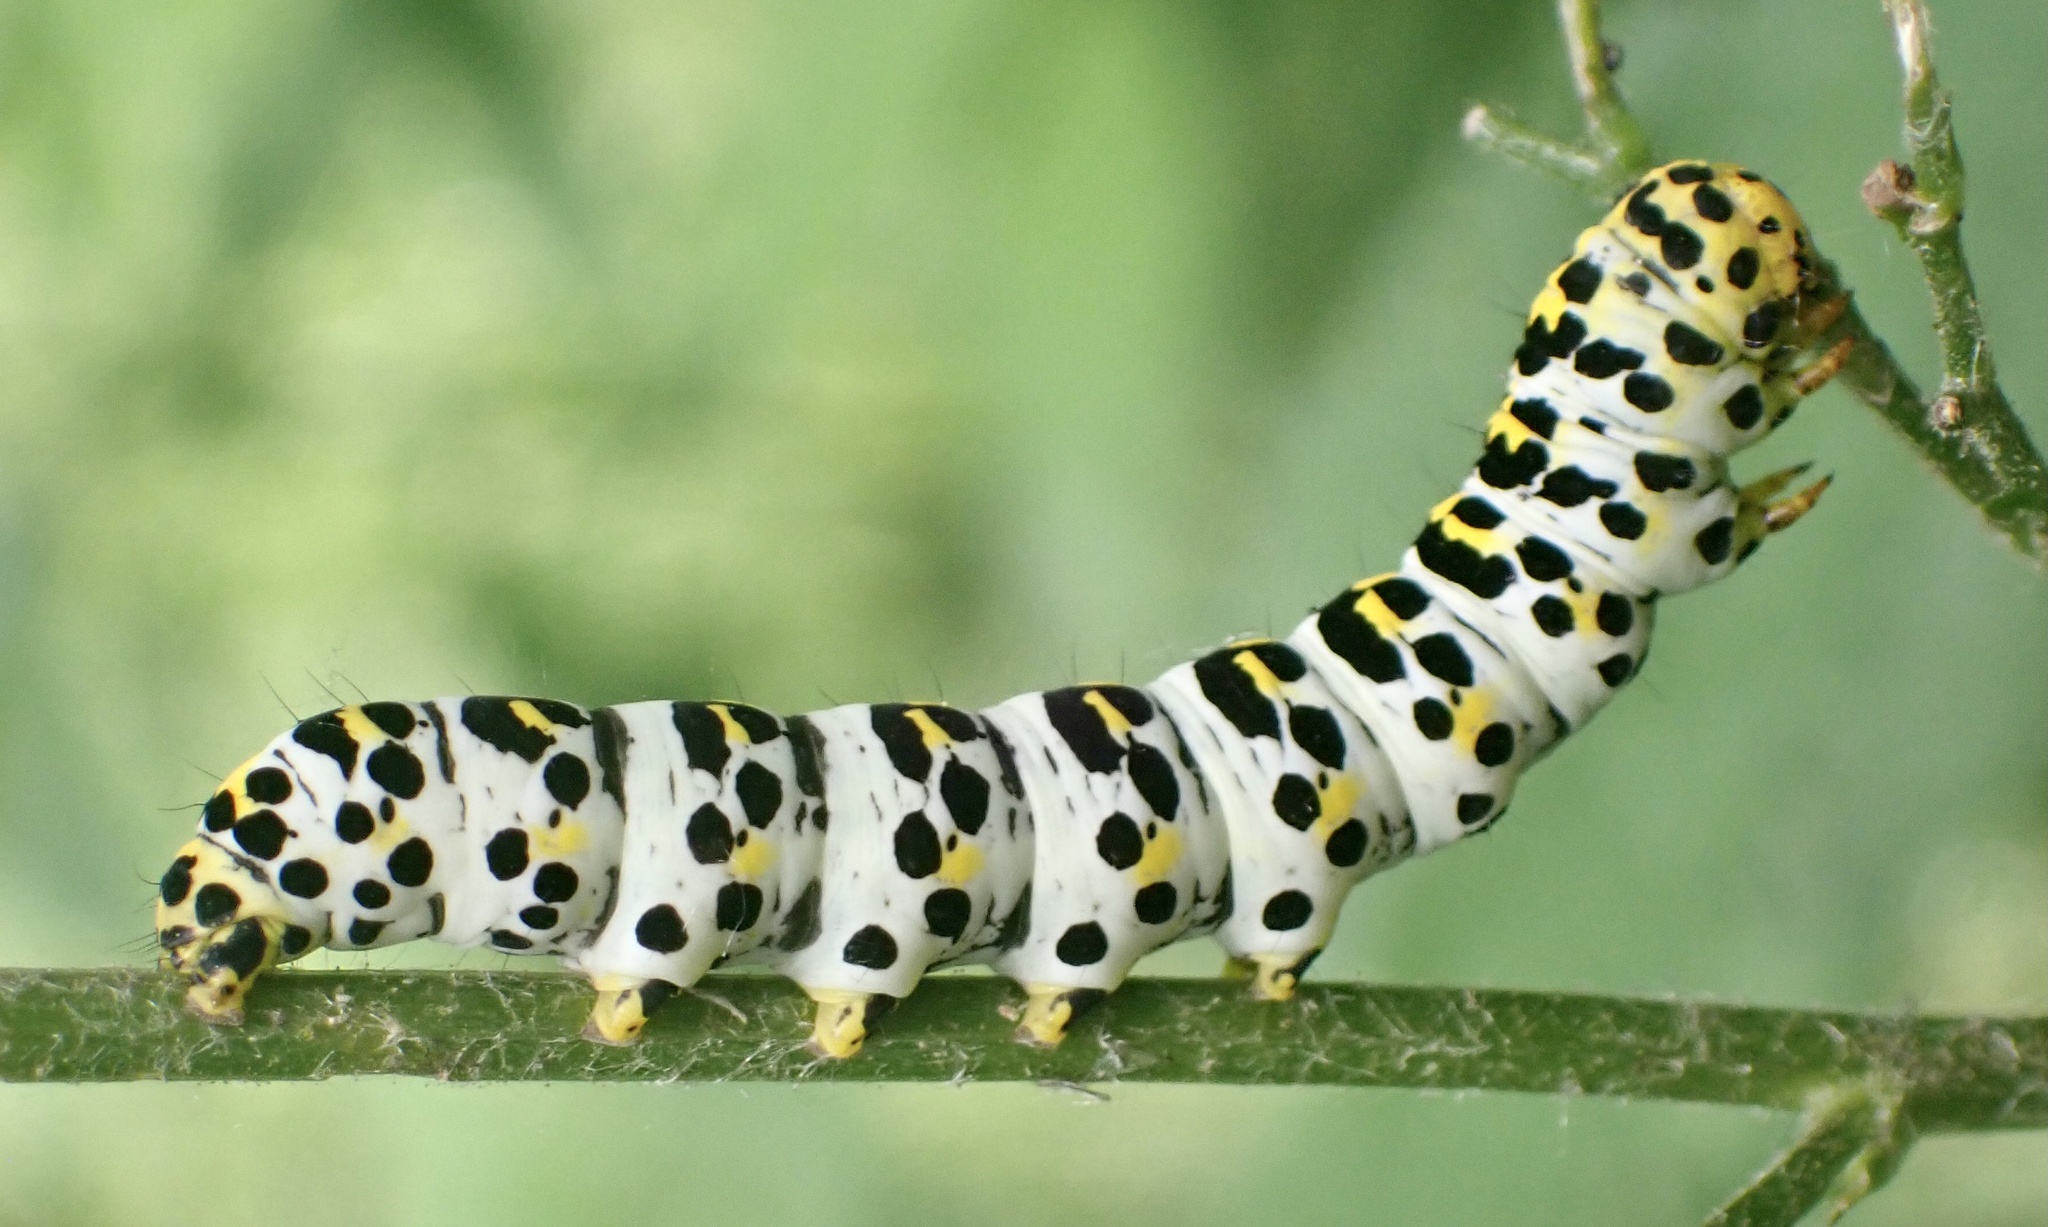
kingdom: Animalia
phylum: Arthropoda
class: Insecta
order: Lepidoptera
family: Noctuidae
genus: Shargacucullia
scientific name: Shargacucullia scrophulariae
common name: Water betony
